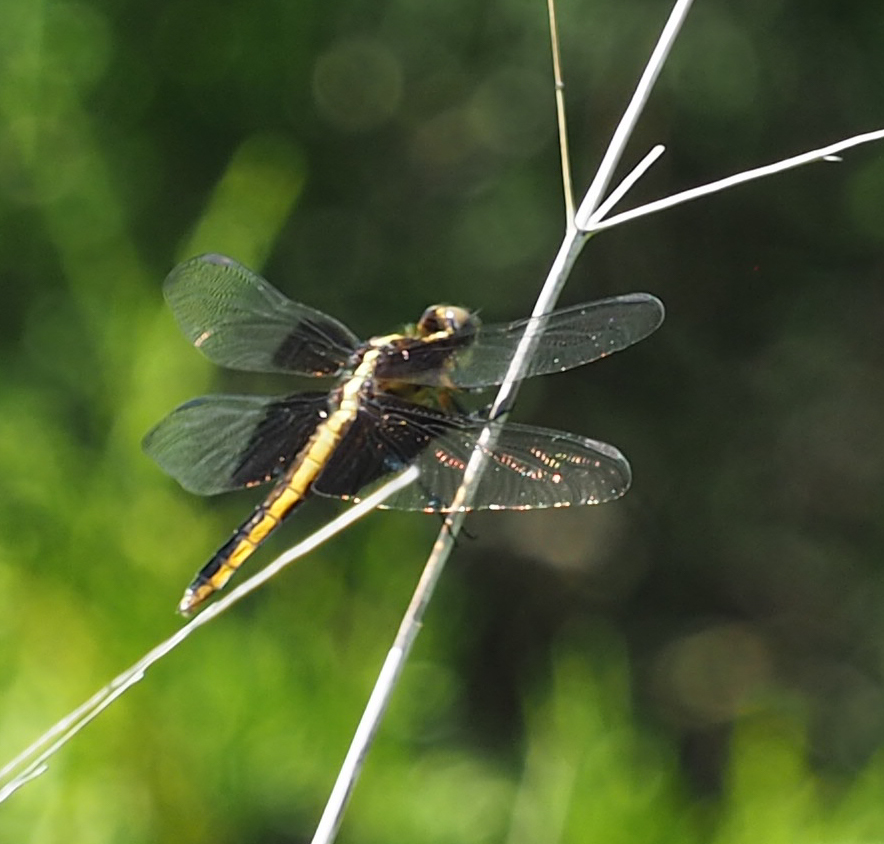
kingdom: Animalia
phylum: Arthropoda
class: Insecta
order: Odonata
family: Libellulidae
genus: Libellula
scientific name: Libellula luctuosa
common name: Widow skimmer
